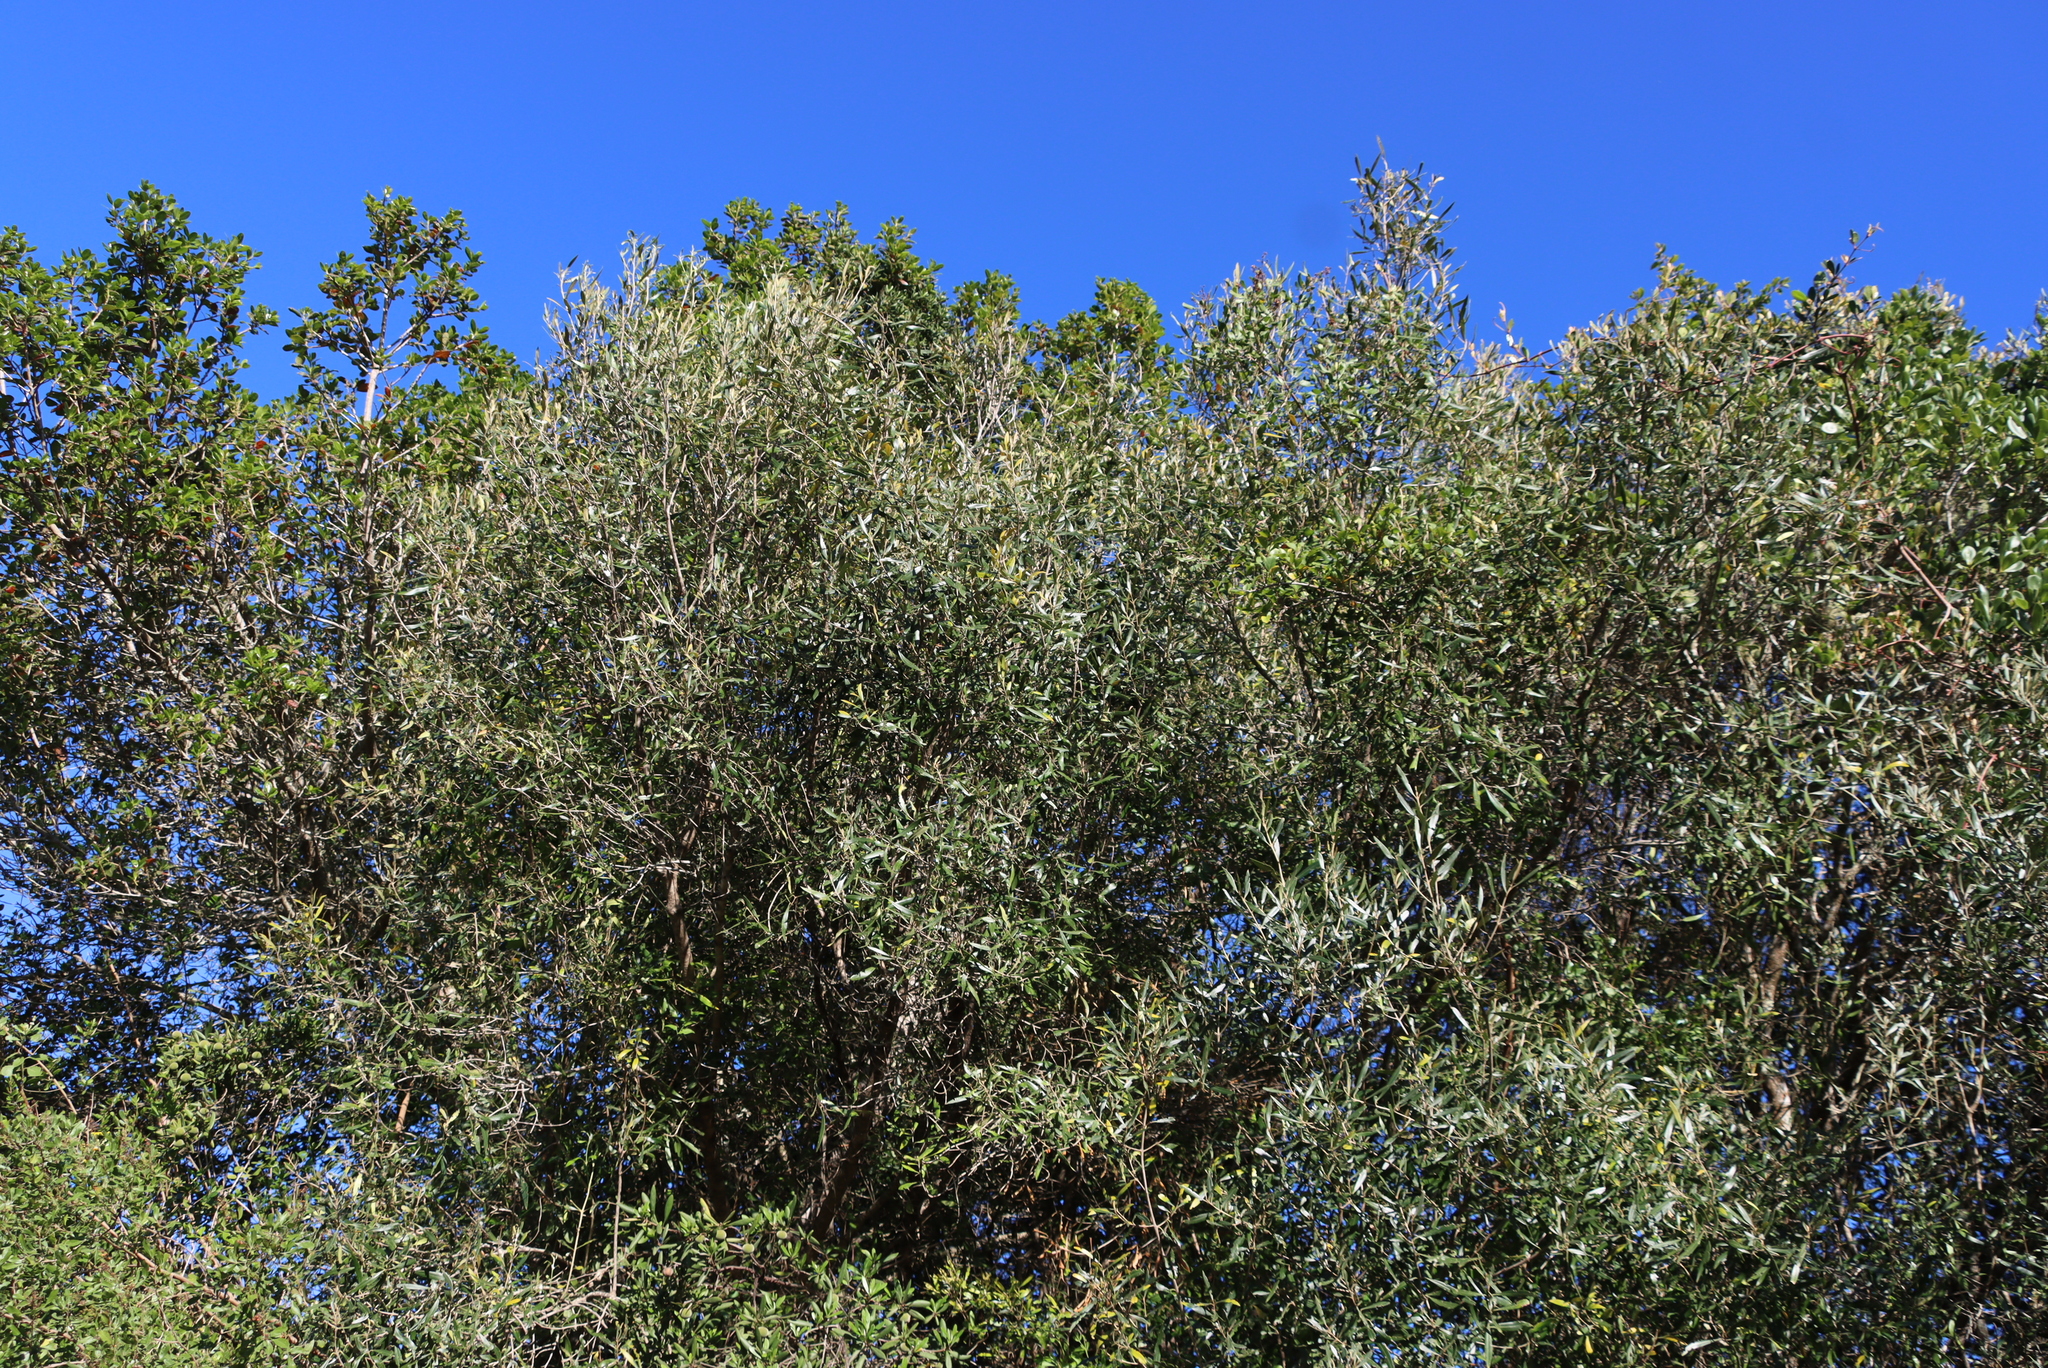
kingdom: Plantae
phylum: Tracheophyta
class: Magnoliopsida
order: Lamiales
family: Oleaceae
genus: Olea
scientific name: Olea europaea
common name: Olive
